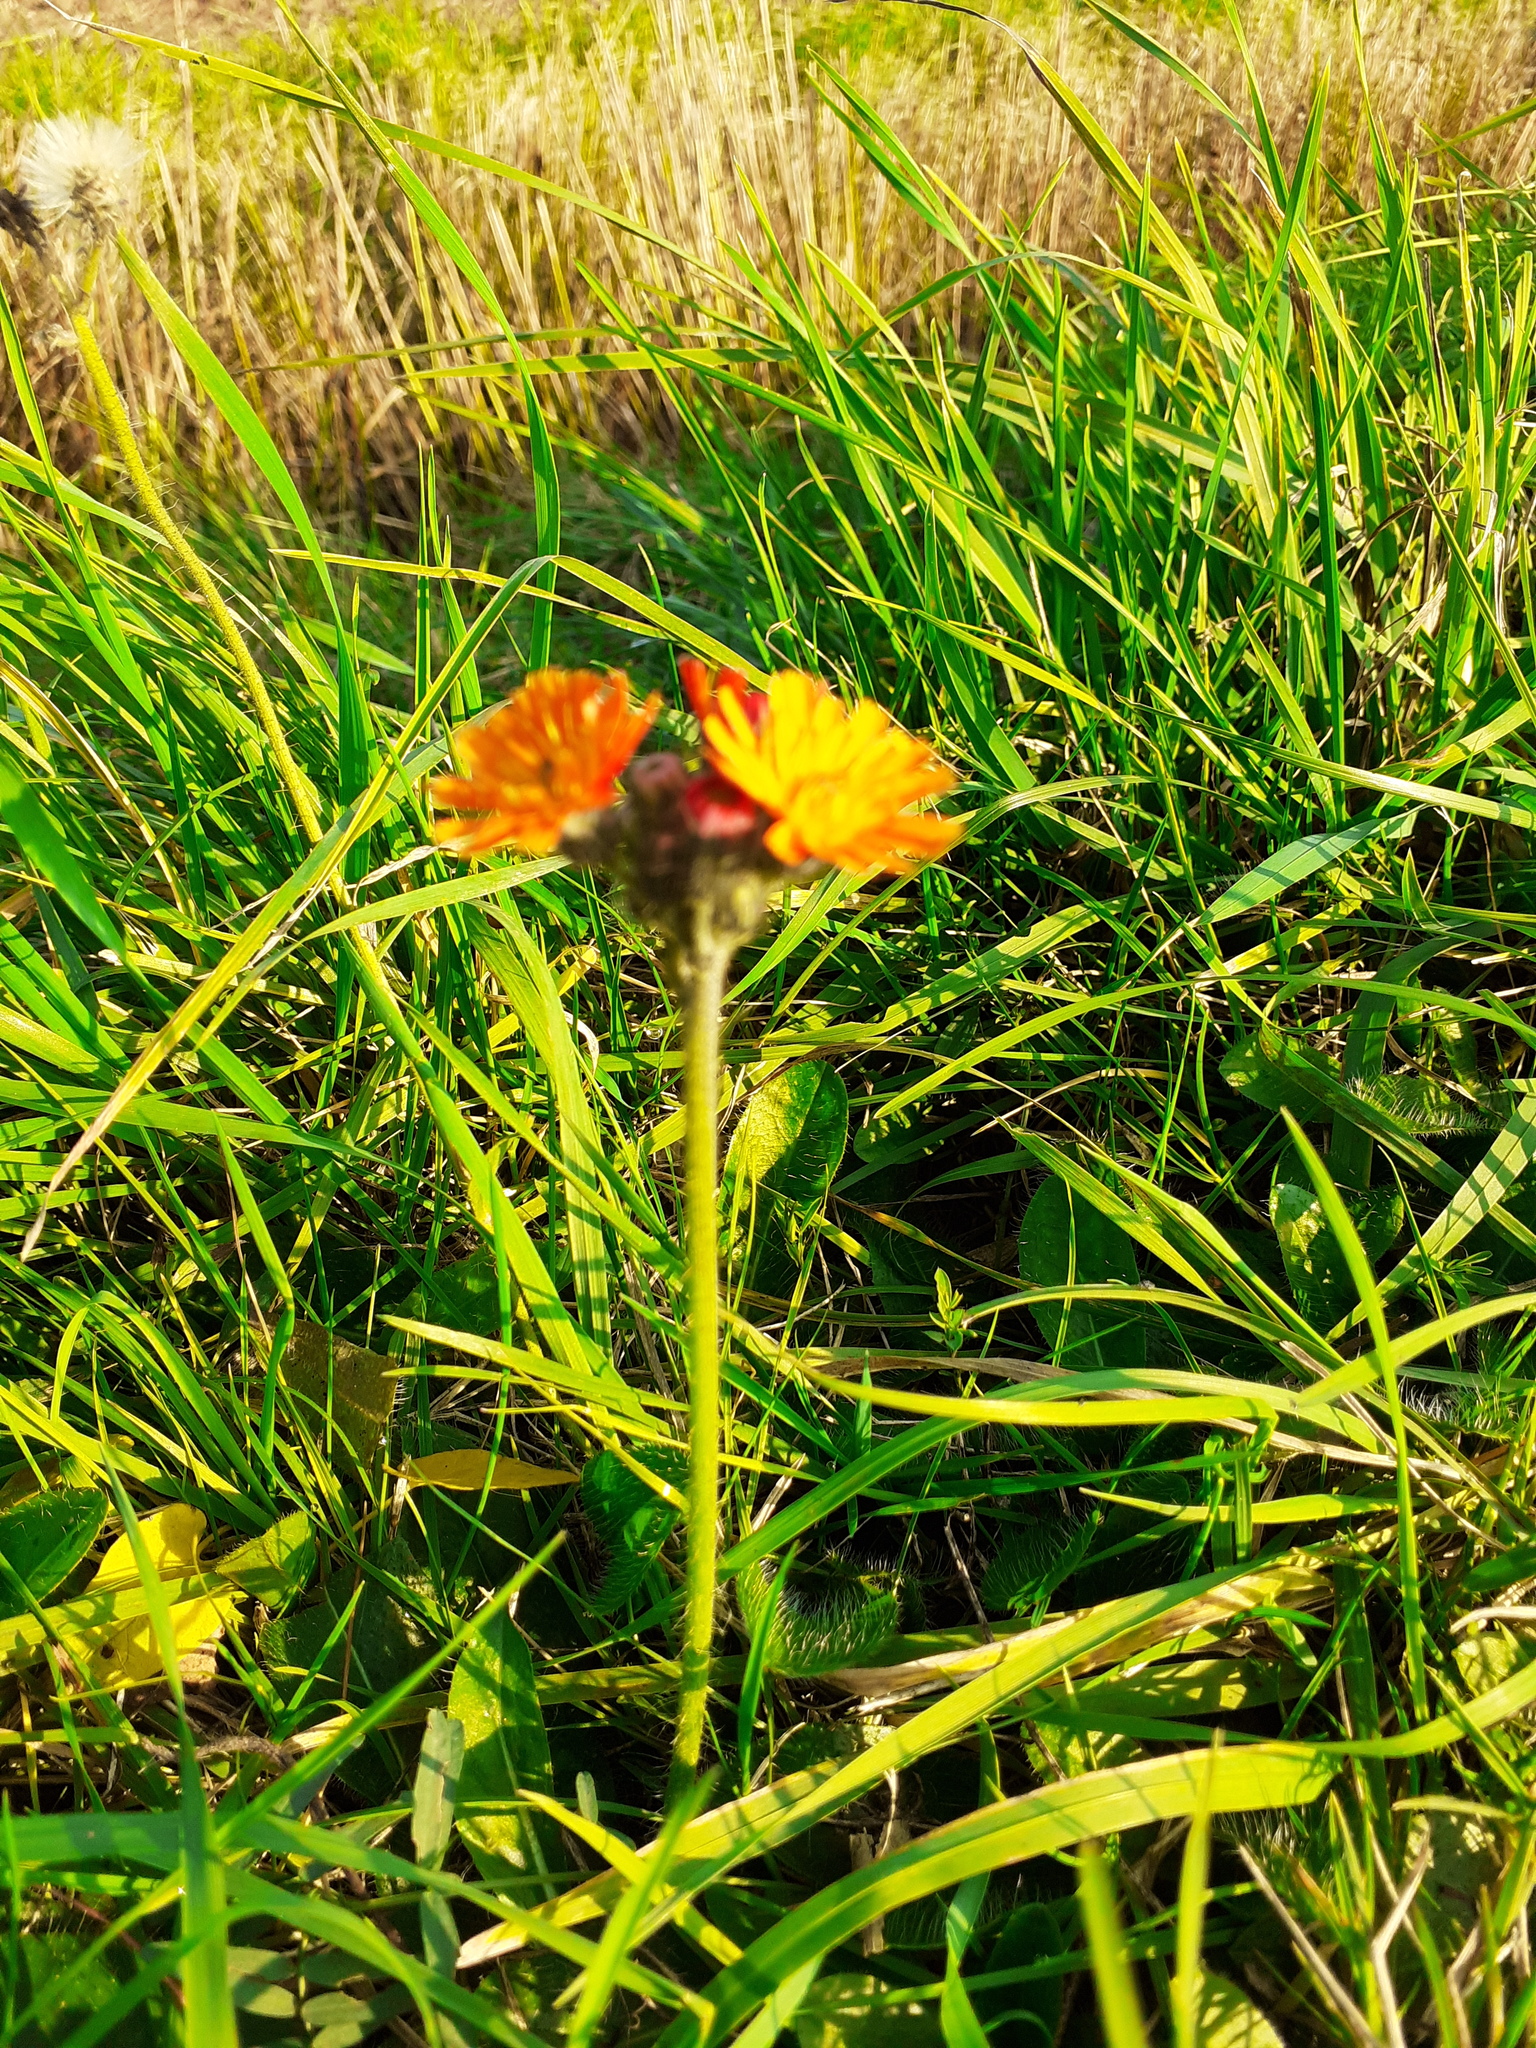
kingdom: Plantae
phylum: Tracheophyta
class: Magnoliopsida
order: Asterales
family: Asteraceae
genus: Pilosella
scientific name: Pilosella aurantiaca
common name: Fox-and-cubs
